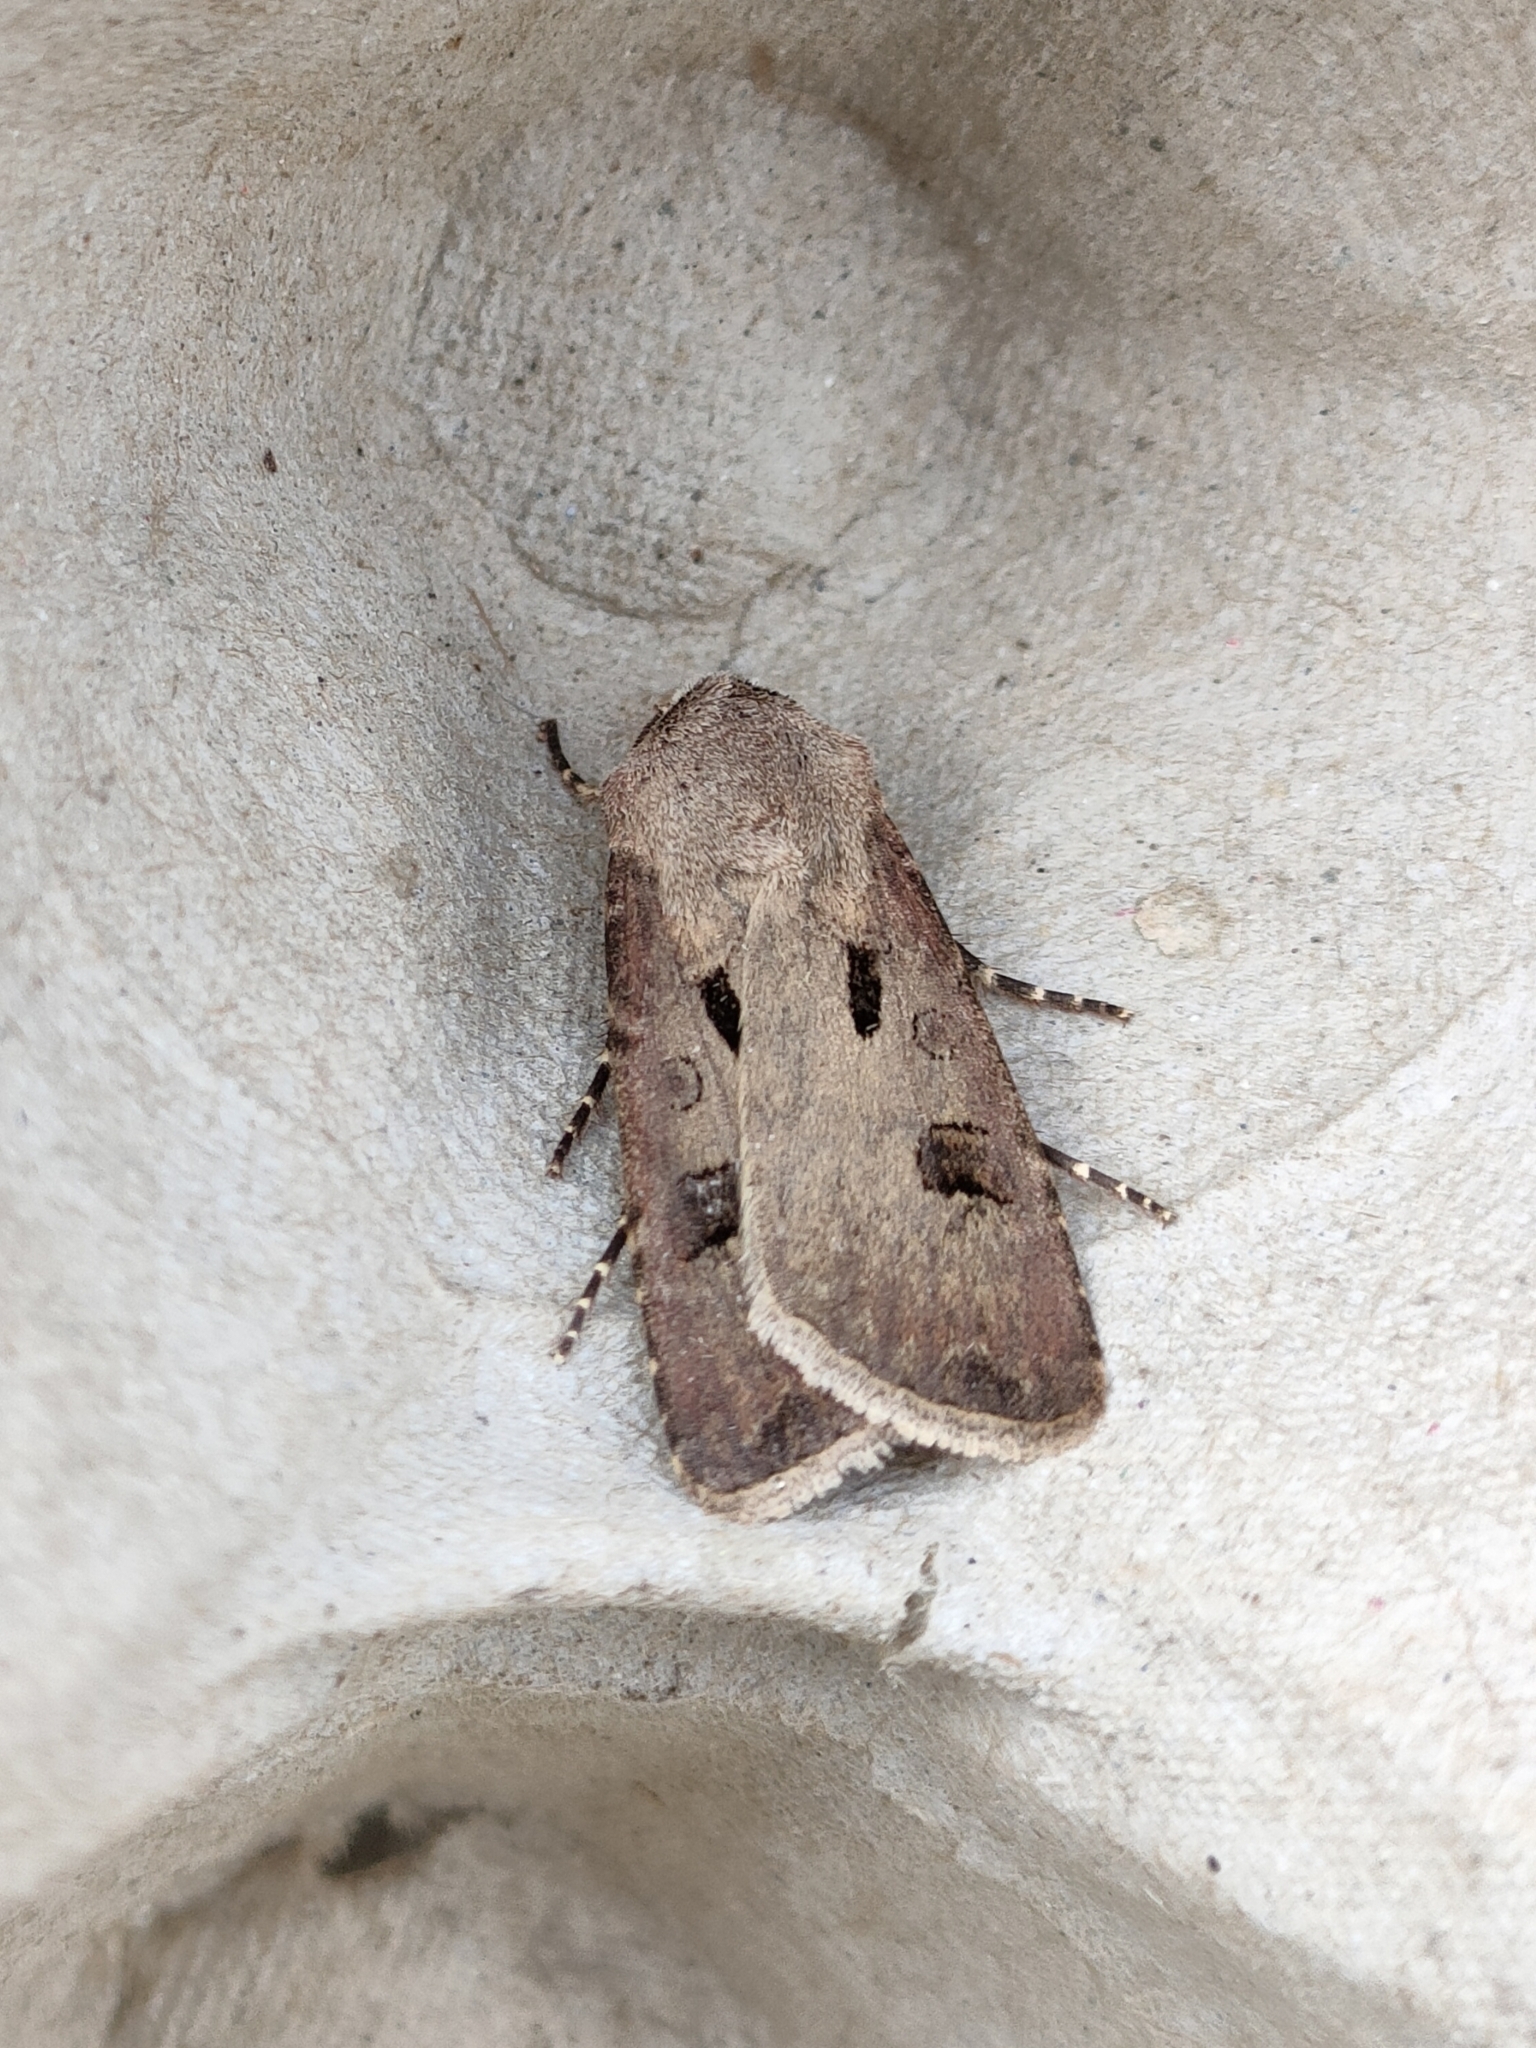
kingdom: Animalia
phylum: Arthropoda
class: Insecta
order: Lepidoptera
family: Noctuidae
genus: Agrotis
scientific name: Agrotis exclamationis
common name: Heart and dart
